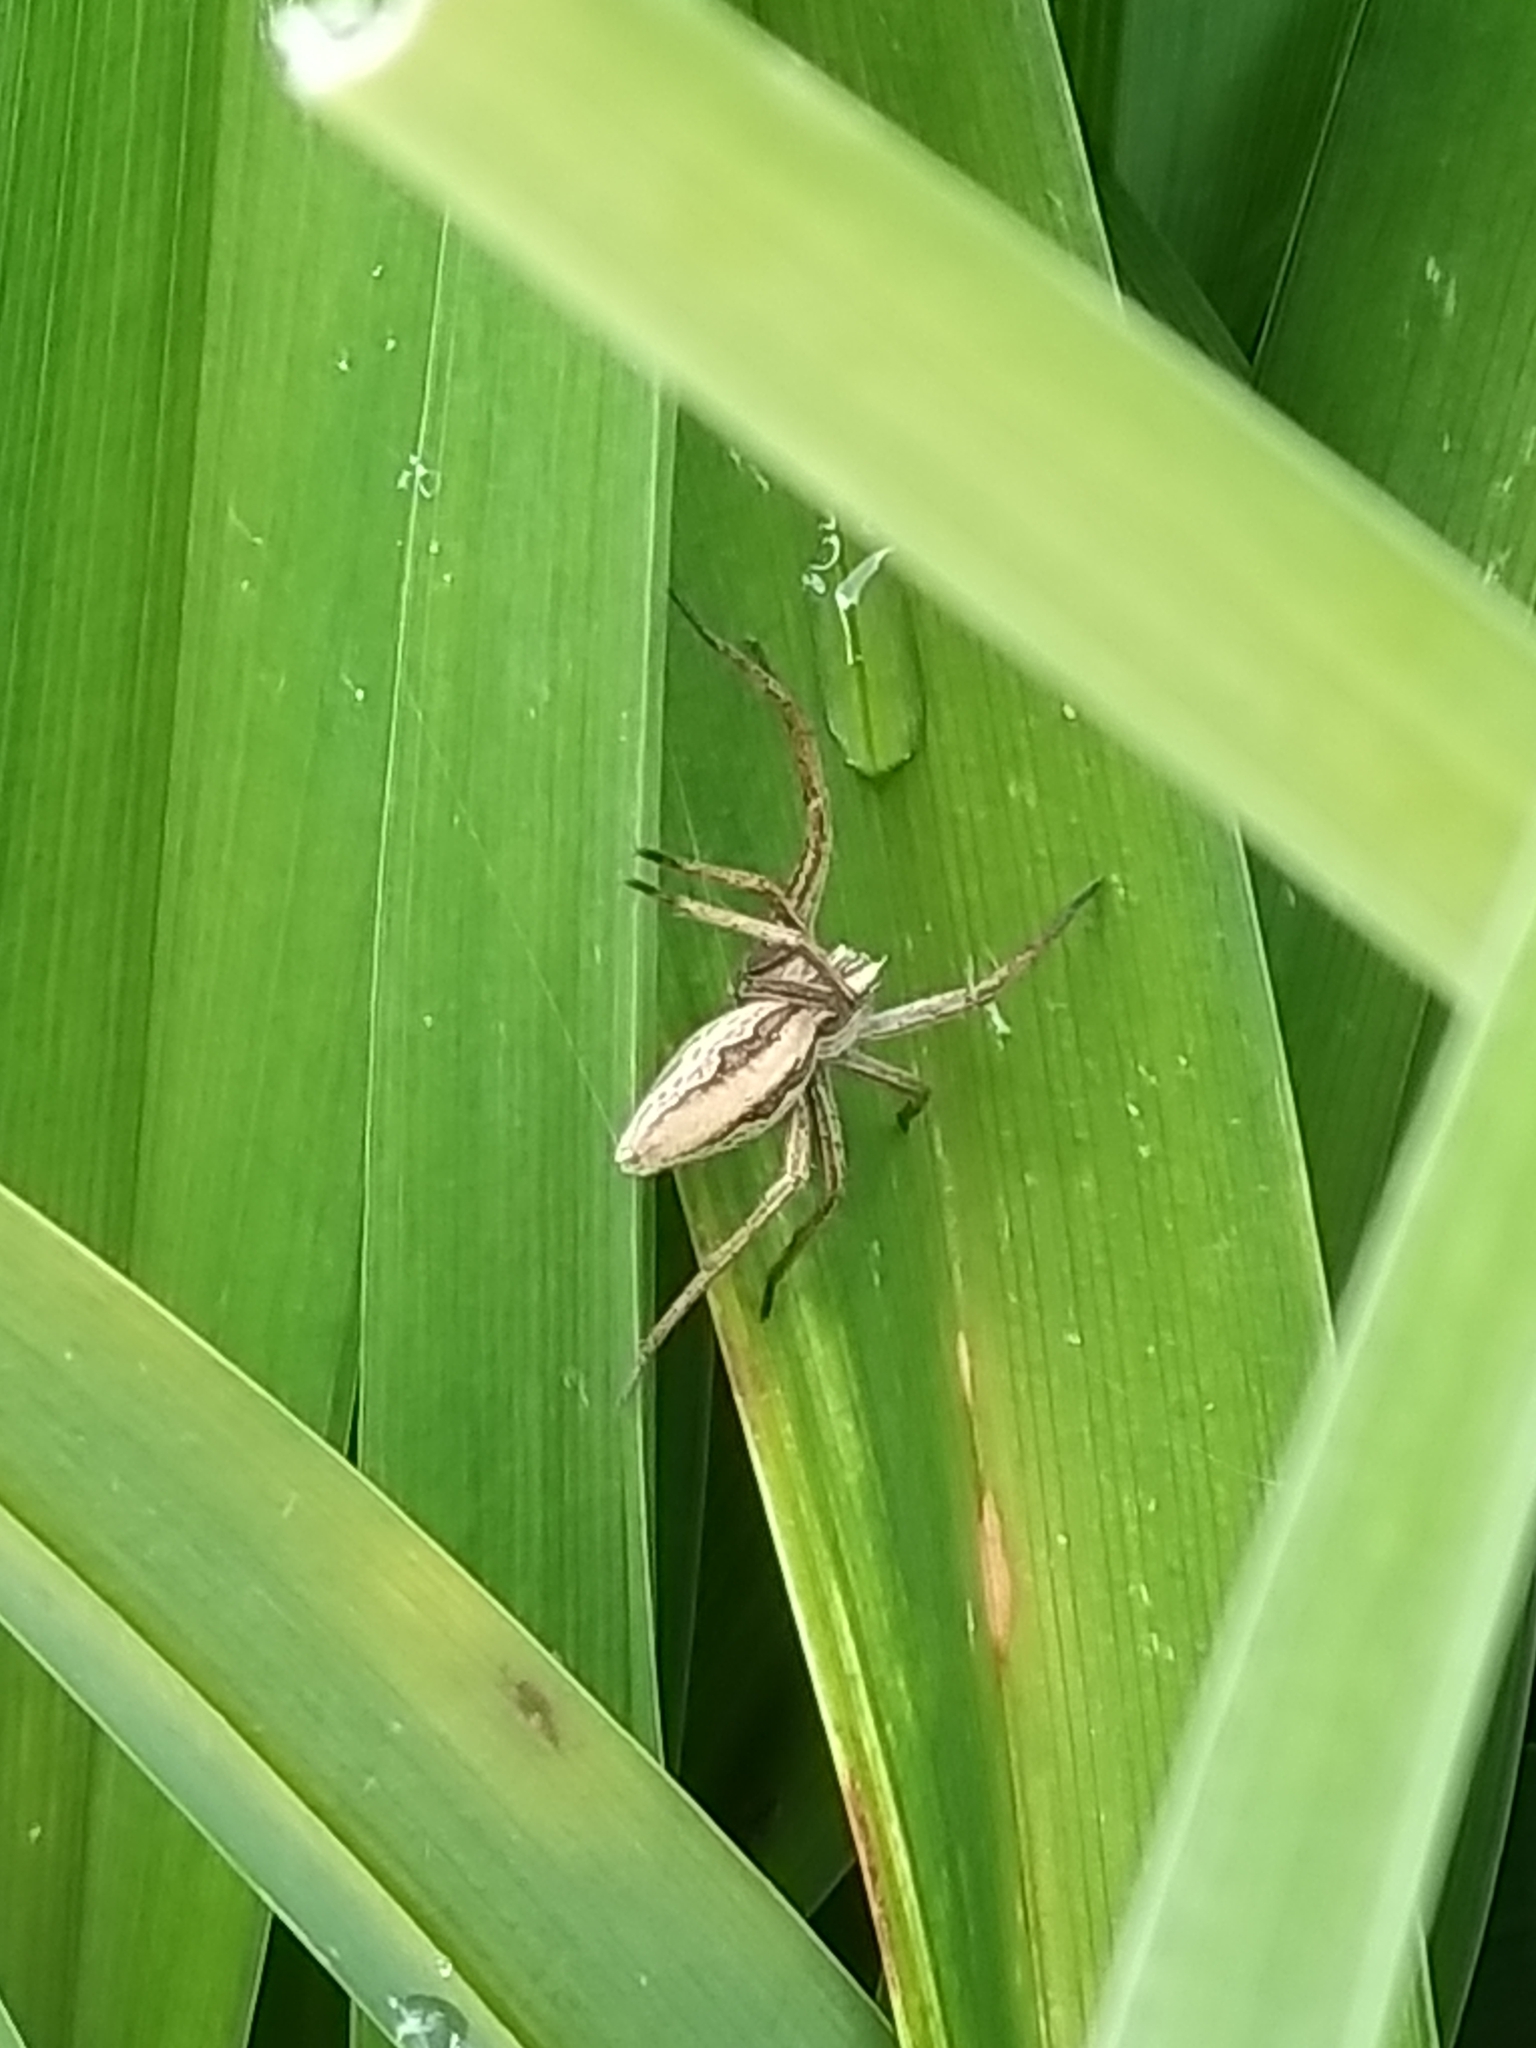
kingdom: Animalia
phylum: Arthropoda
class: Arachnida
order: Araneae
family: Pisauridae
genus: Pisaura
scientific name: Pisaura mirabilis
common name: Tent spider
